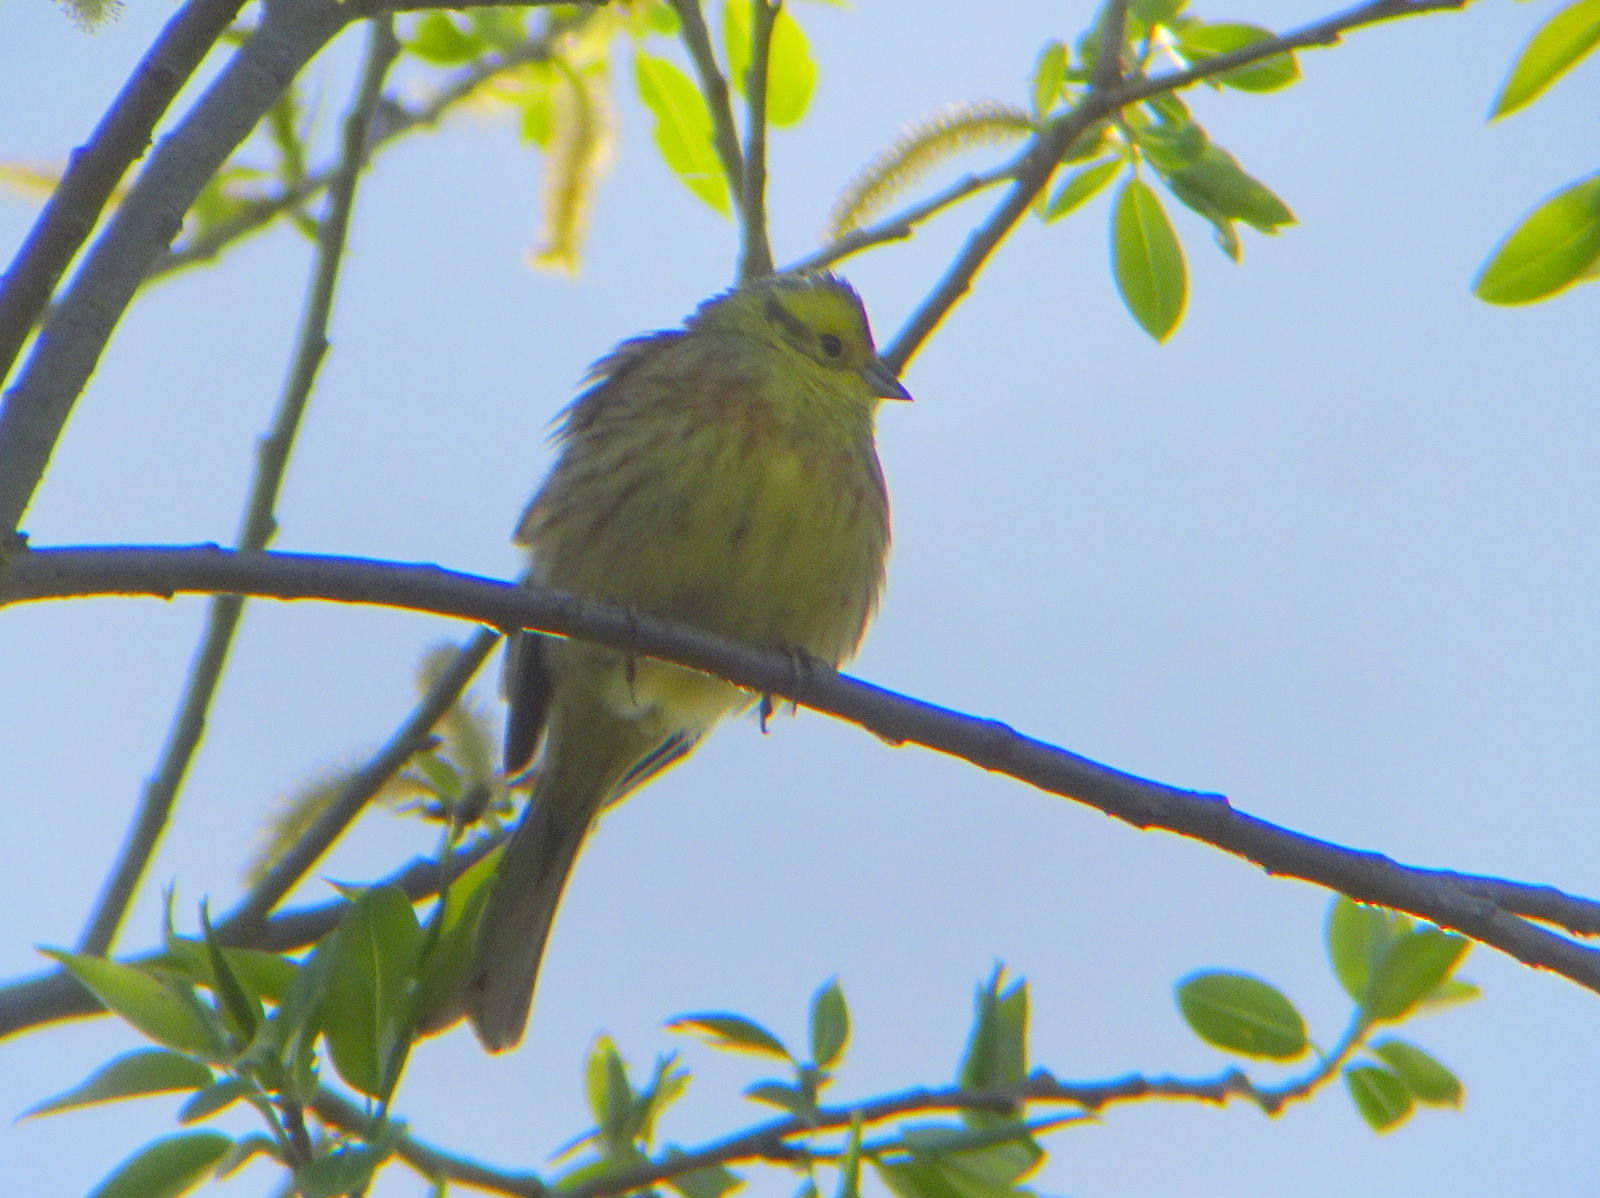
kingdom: Animalia
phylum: Chordata
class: Aves
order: Passeriformes
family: Emberizidae
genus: Emberiza
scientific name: Emberiza citrinella
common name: Yellowhammer
